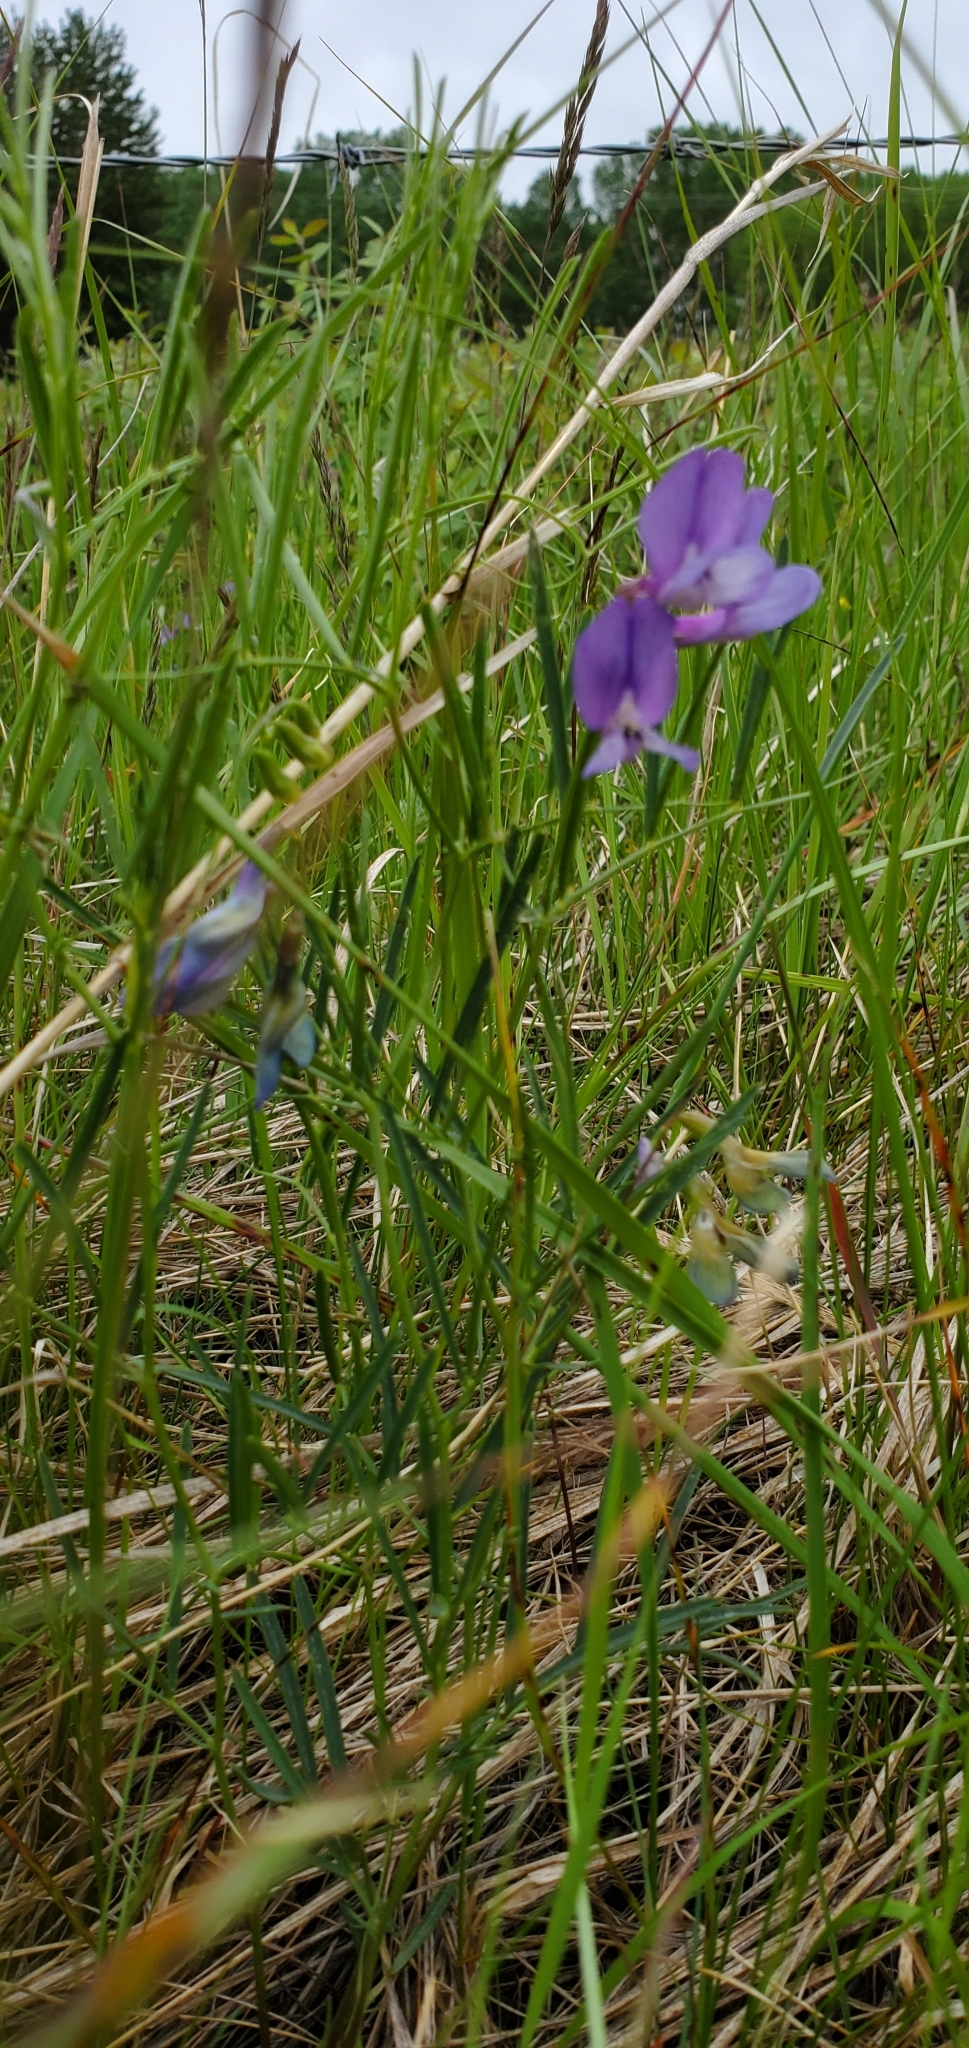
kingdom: Plantae
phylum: Tracheophyta
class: Magnoliopsida
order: Fabales
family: Fabaceae
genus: Vicia
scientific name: Vicia americana
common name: American vetch
